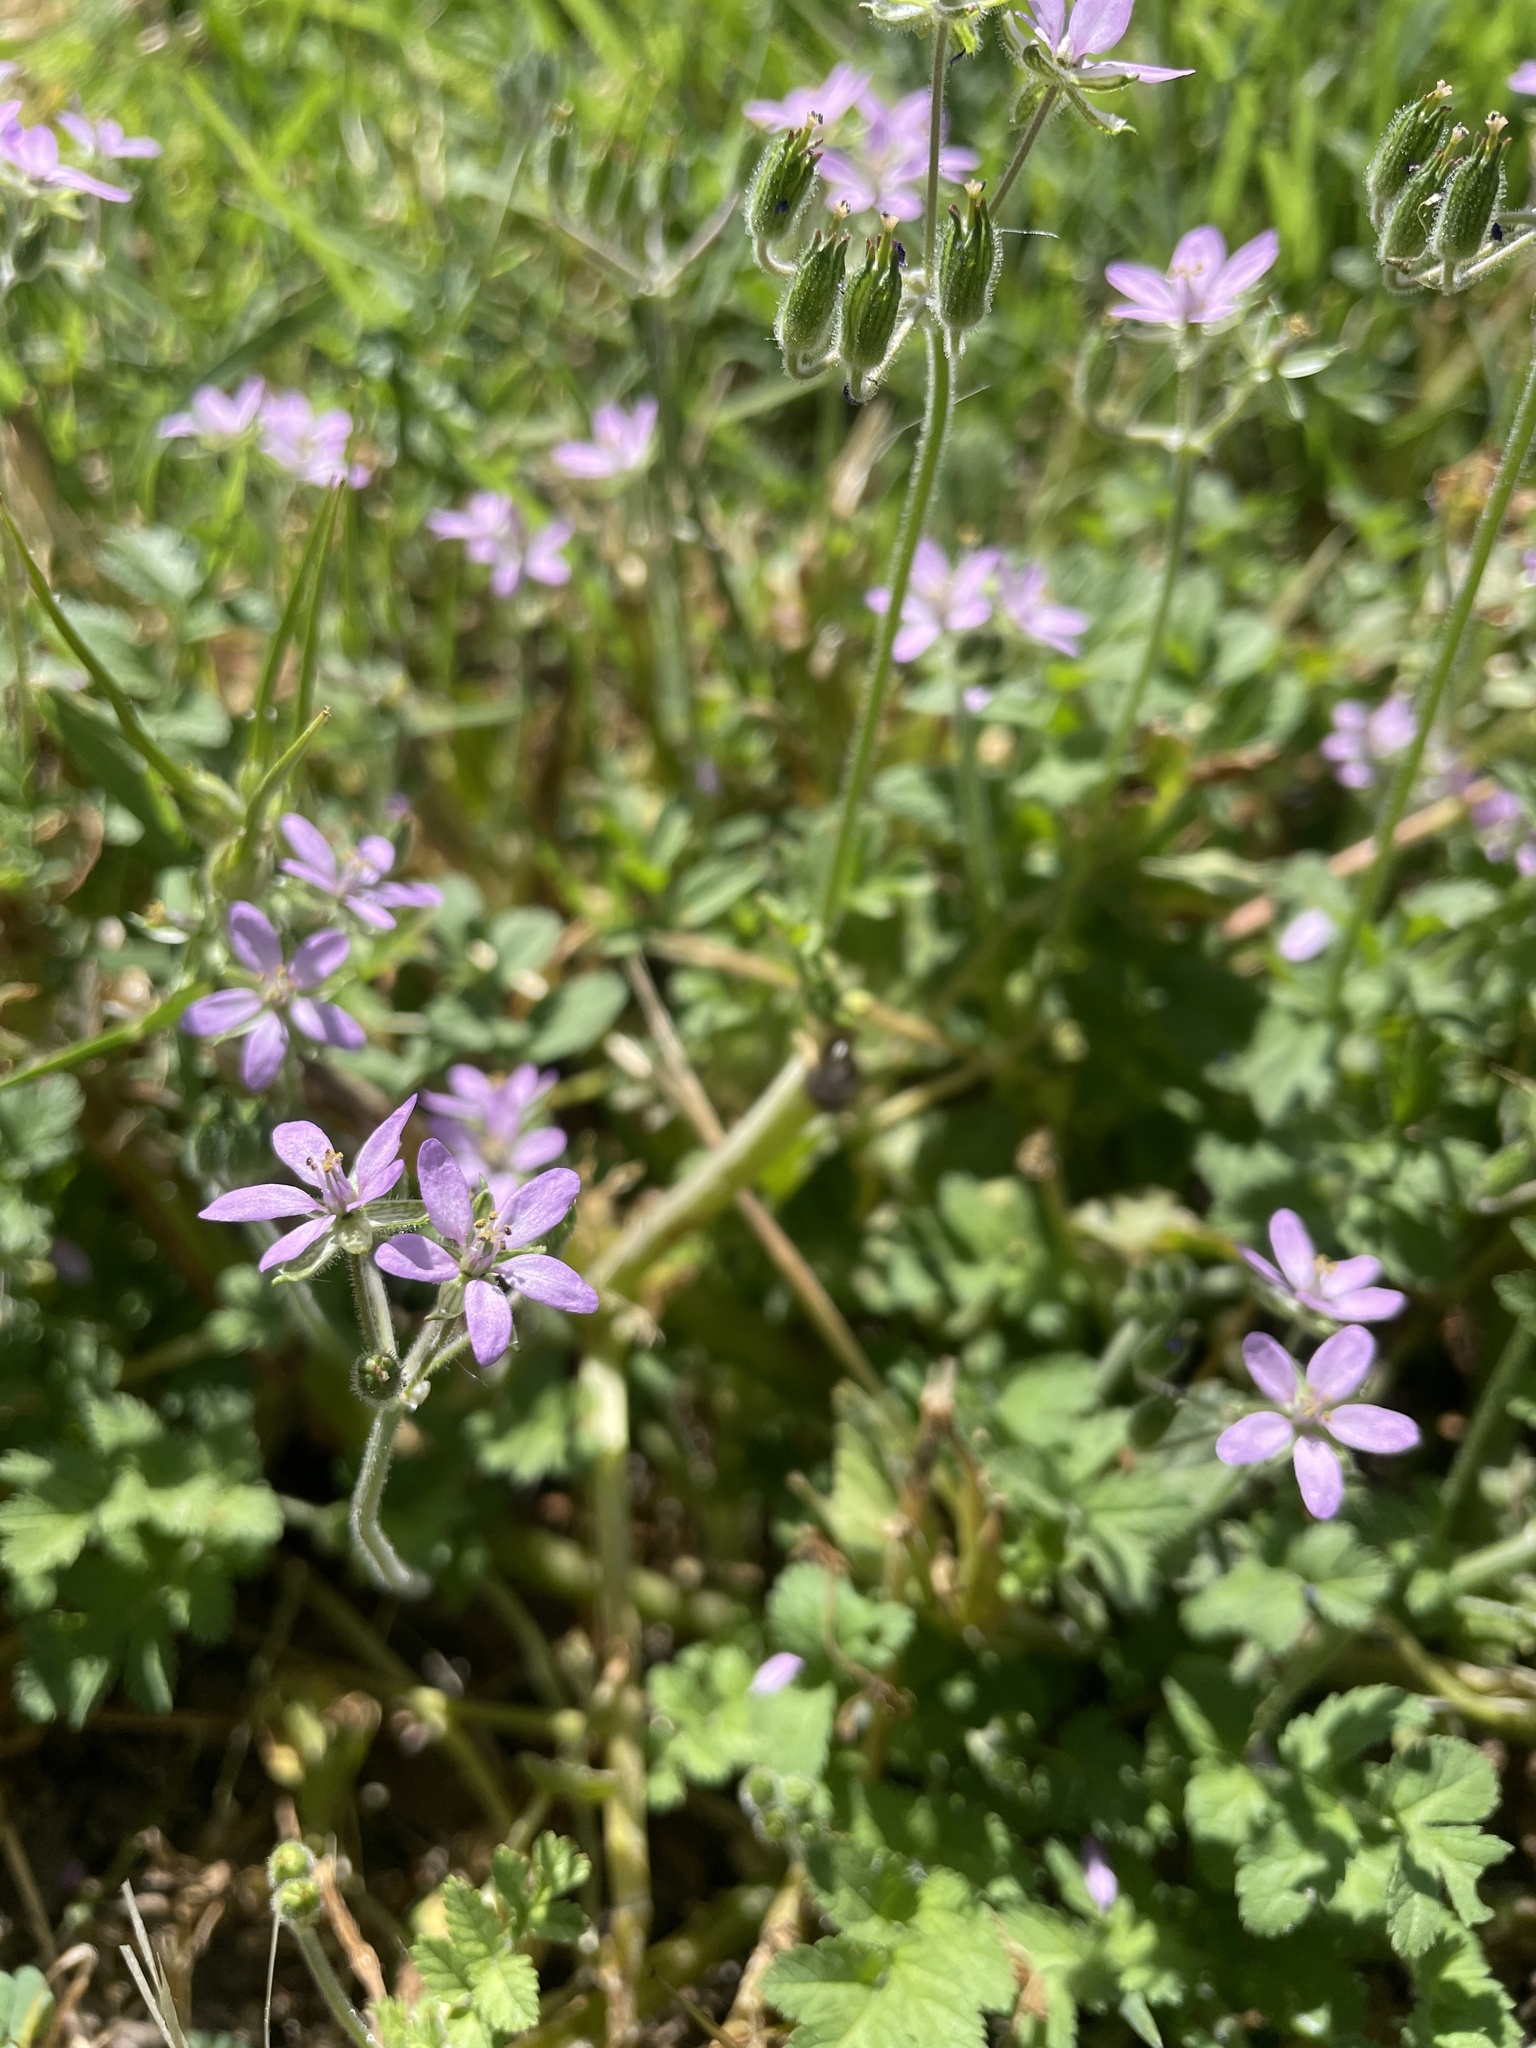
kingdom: Plantae
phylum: Tracheophyta
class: Magnoliopsida
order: Geraniales
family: Geraniaceae
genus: Erodium
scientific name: Erodium moschatum
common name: Musk stork's-bill
